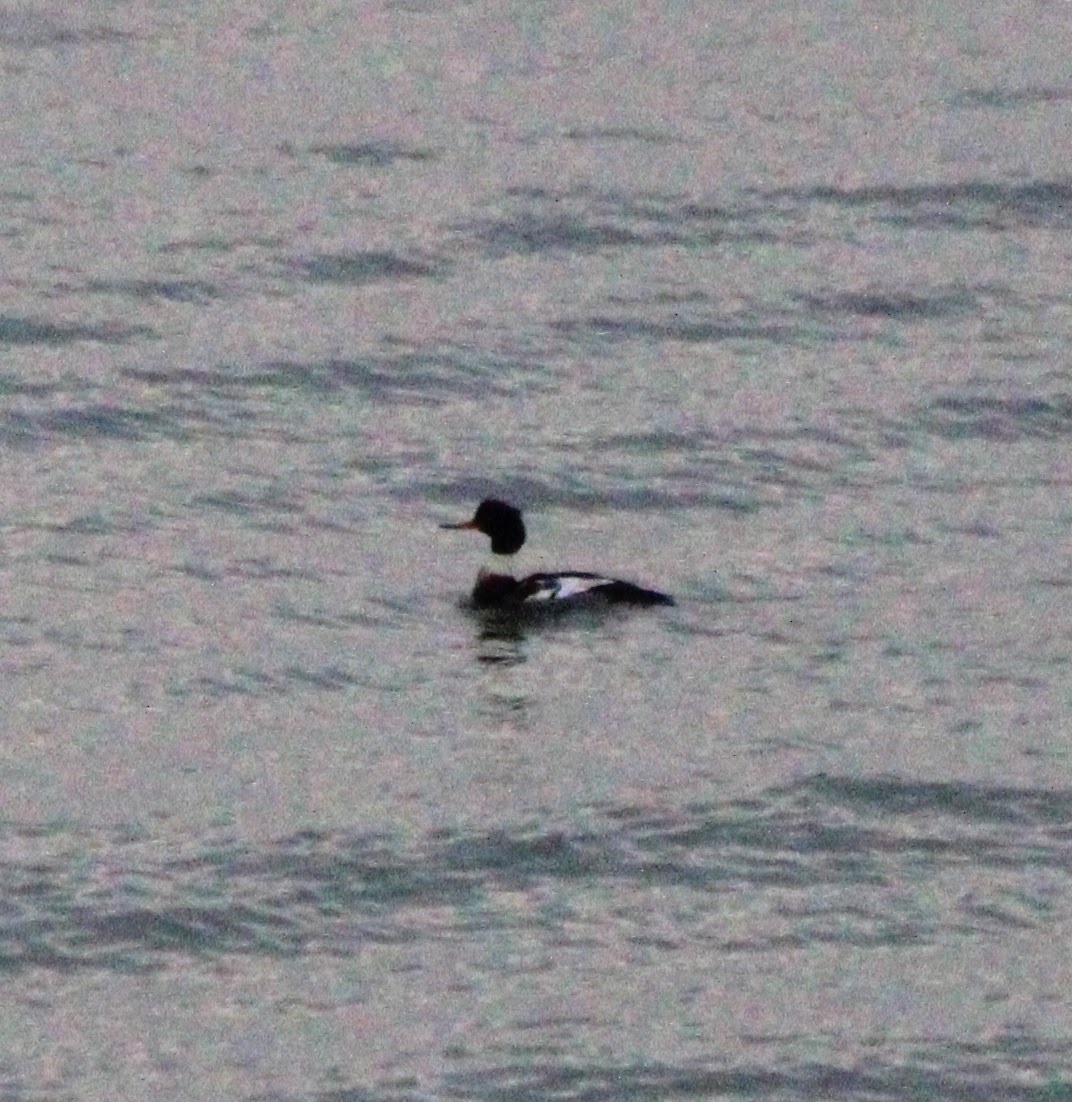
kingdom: Animalia
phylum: Chordata
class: Aves
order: Anseriformes
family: Anatidae
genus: Mergus
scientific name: Mergus serrator
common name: Red-breasted merganser
